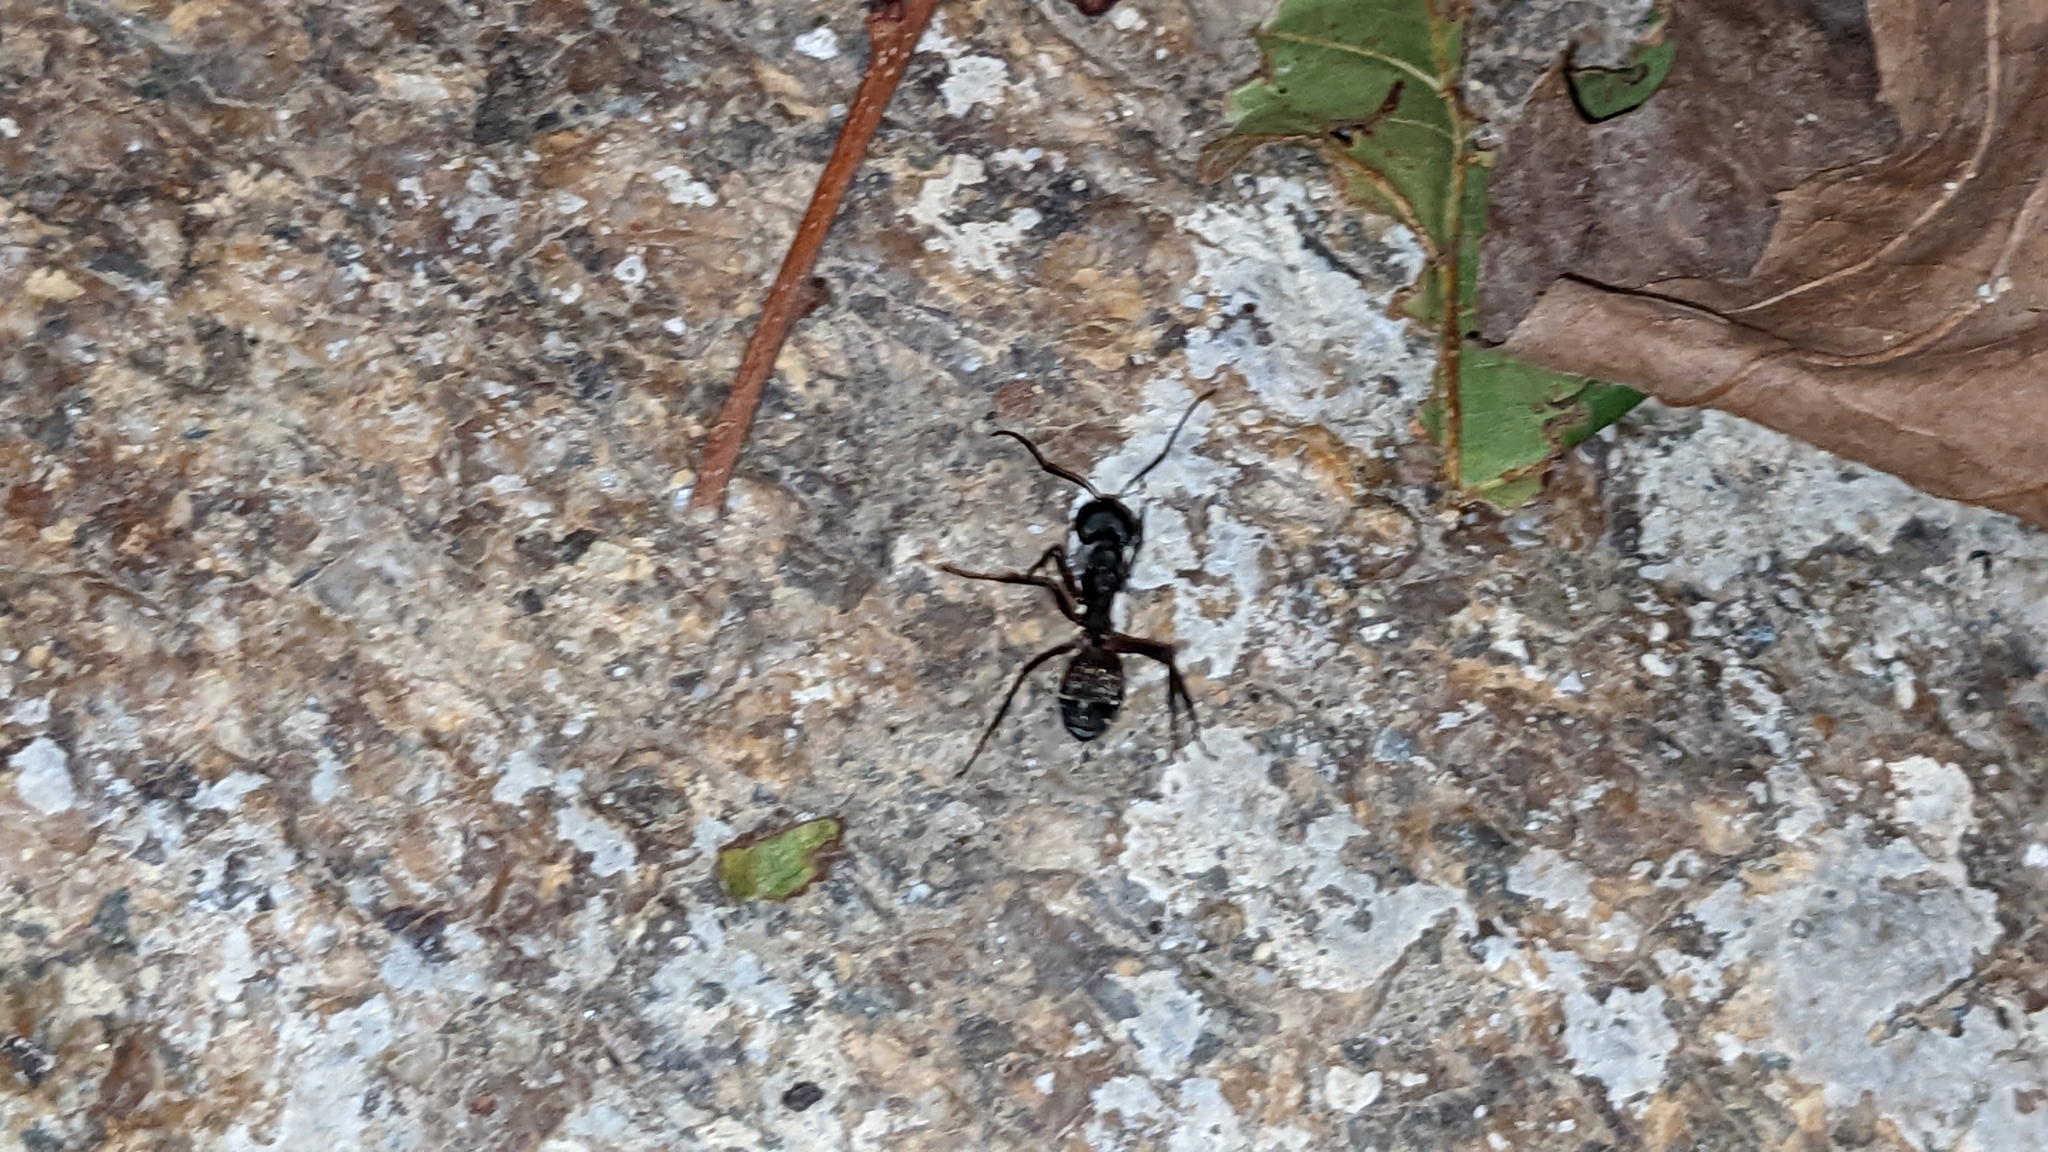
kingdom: Animalia
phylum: Arthropoda
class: Insecta
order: Hymenoptera
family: Formicidae
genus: Camponotus
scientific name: Camponotus cruentatus
